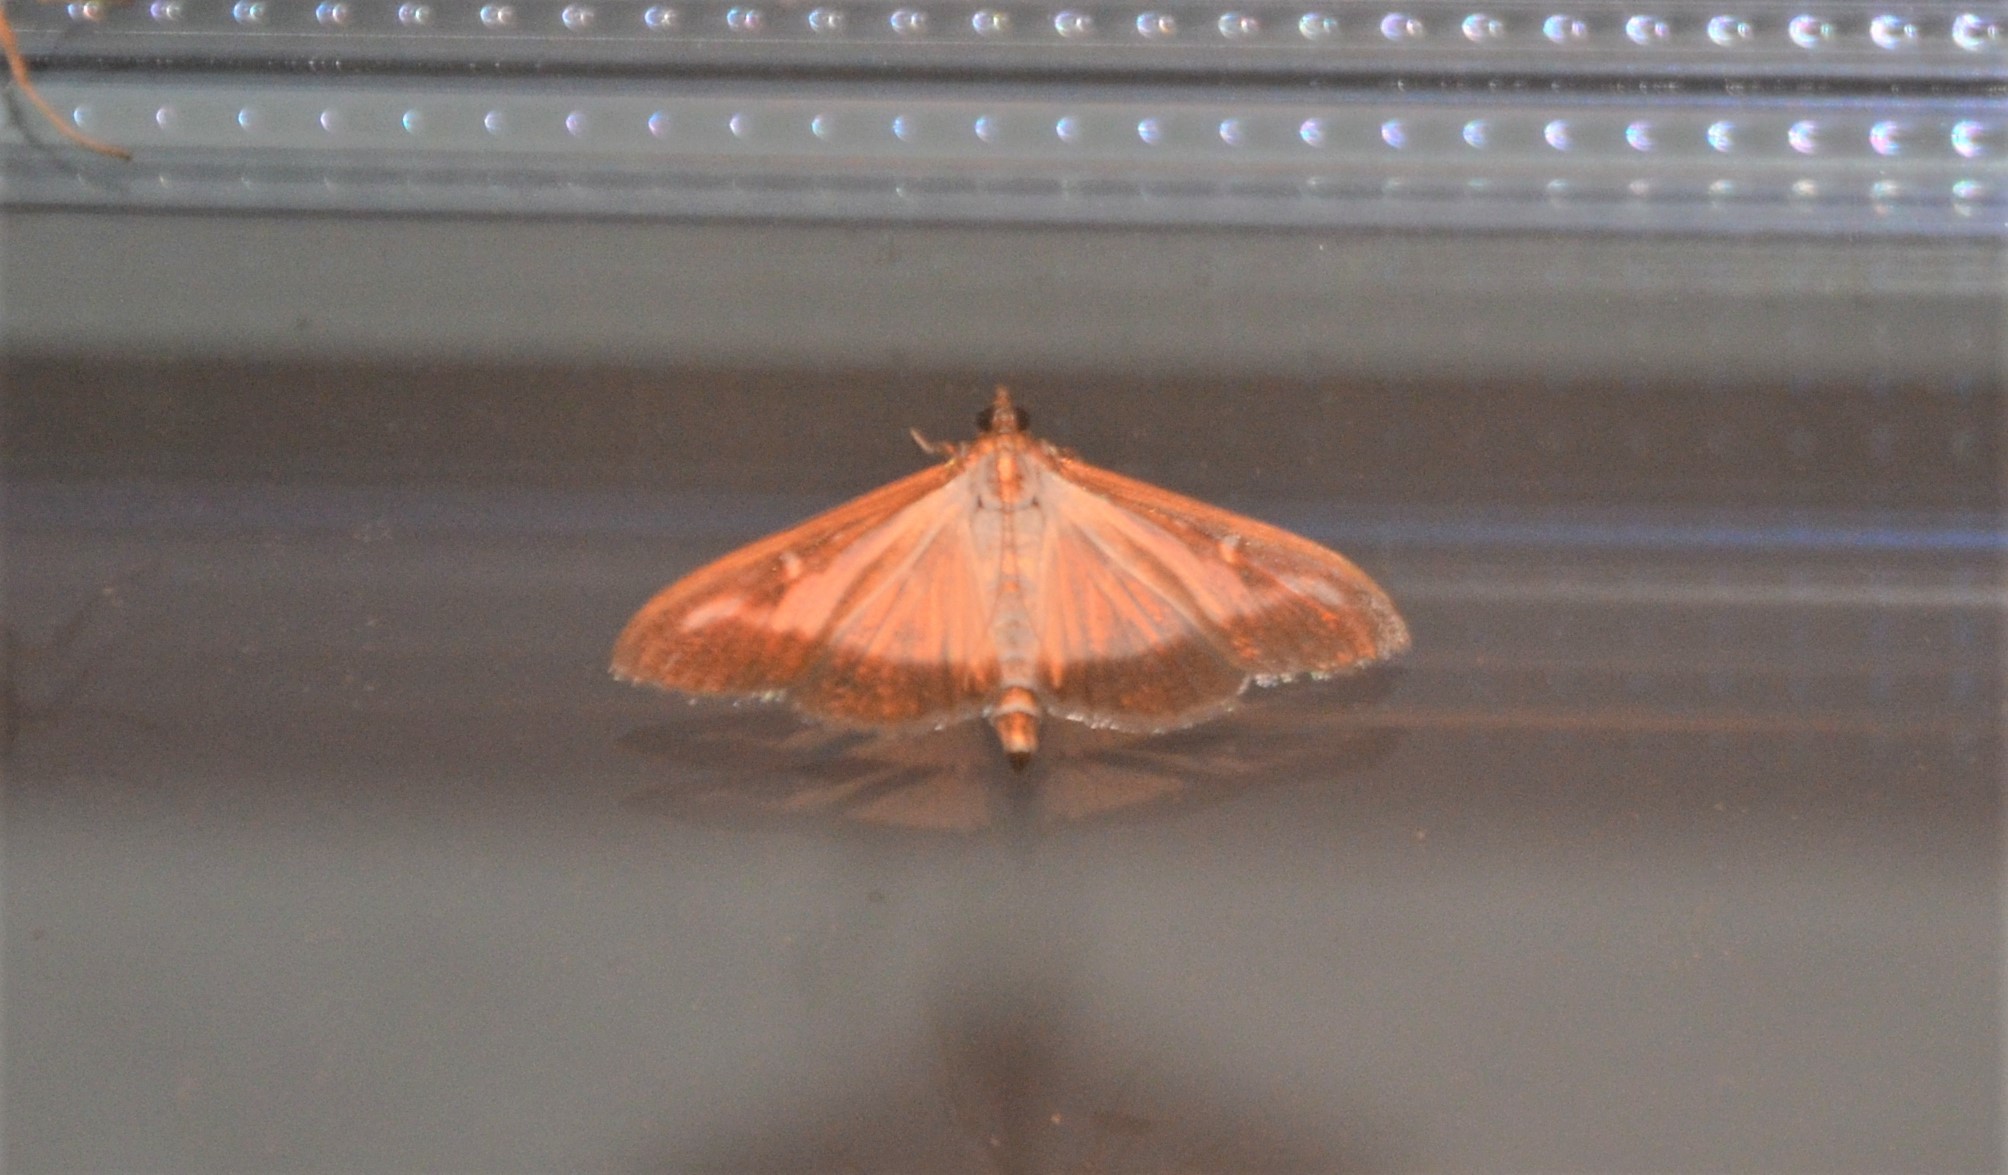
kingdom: Animalia
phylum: Arthropoda
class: Insecta
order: Lepidoptera
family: Crambidae
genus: Cydalima
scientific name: Cydalima perspectalis
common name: Box tree moth
